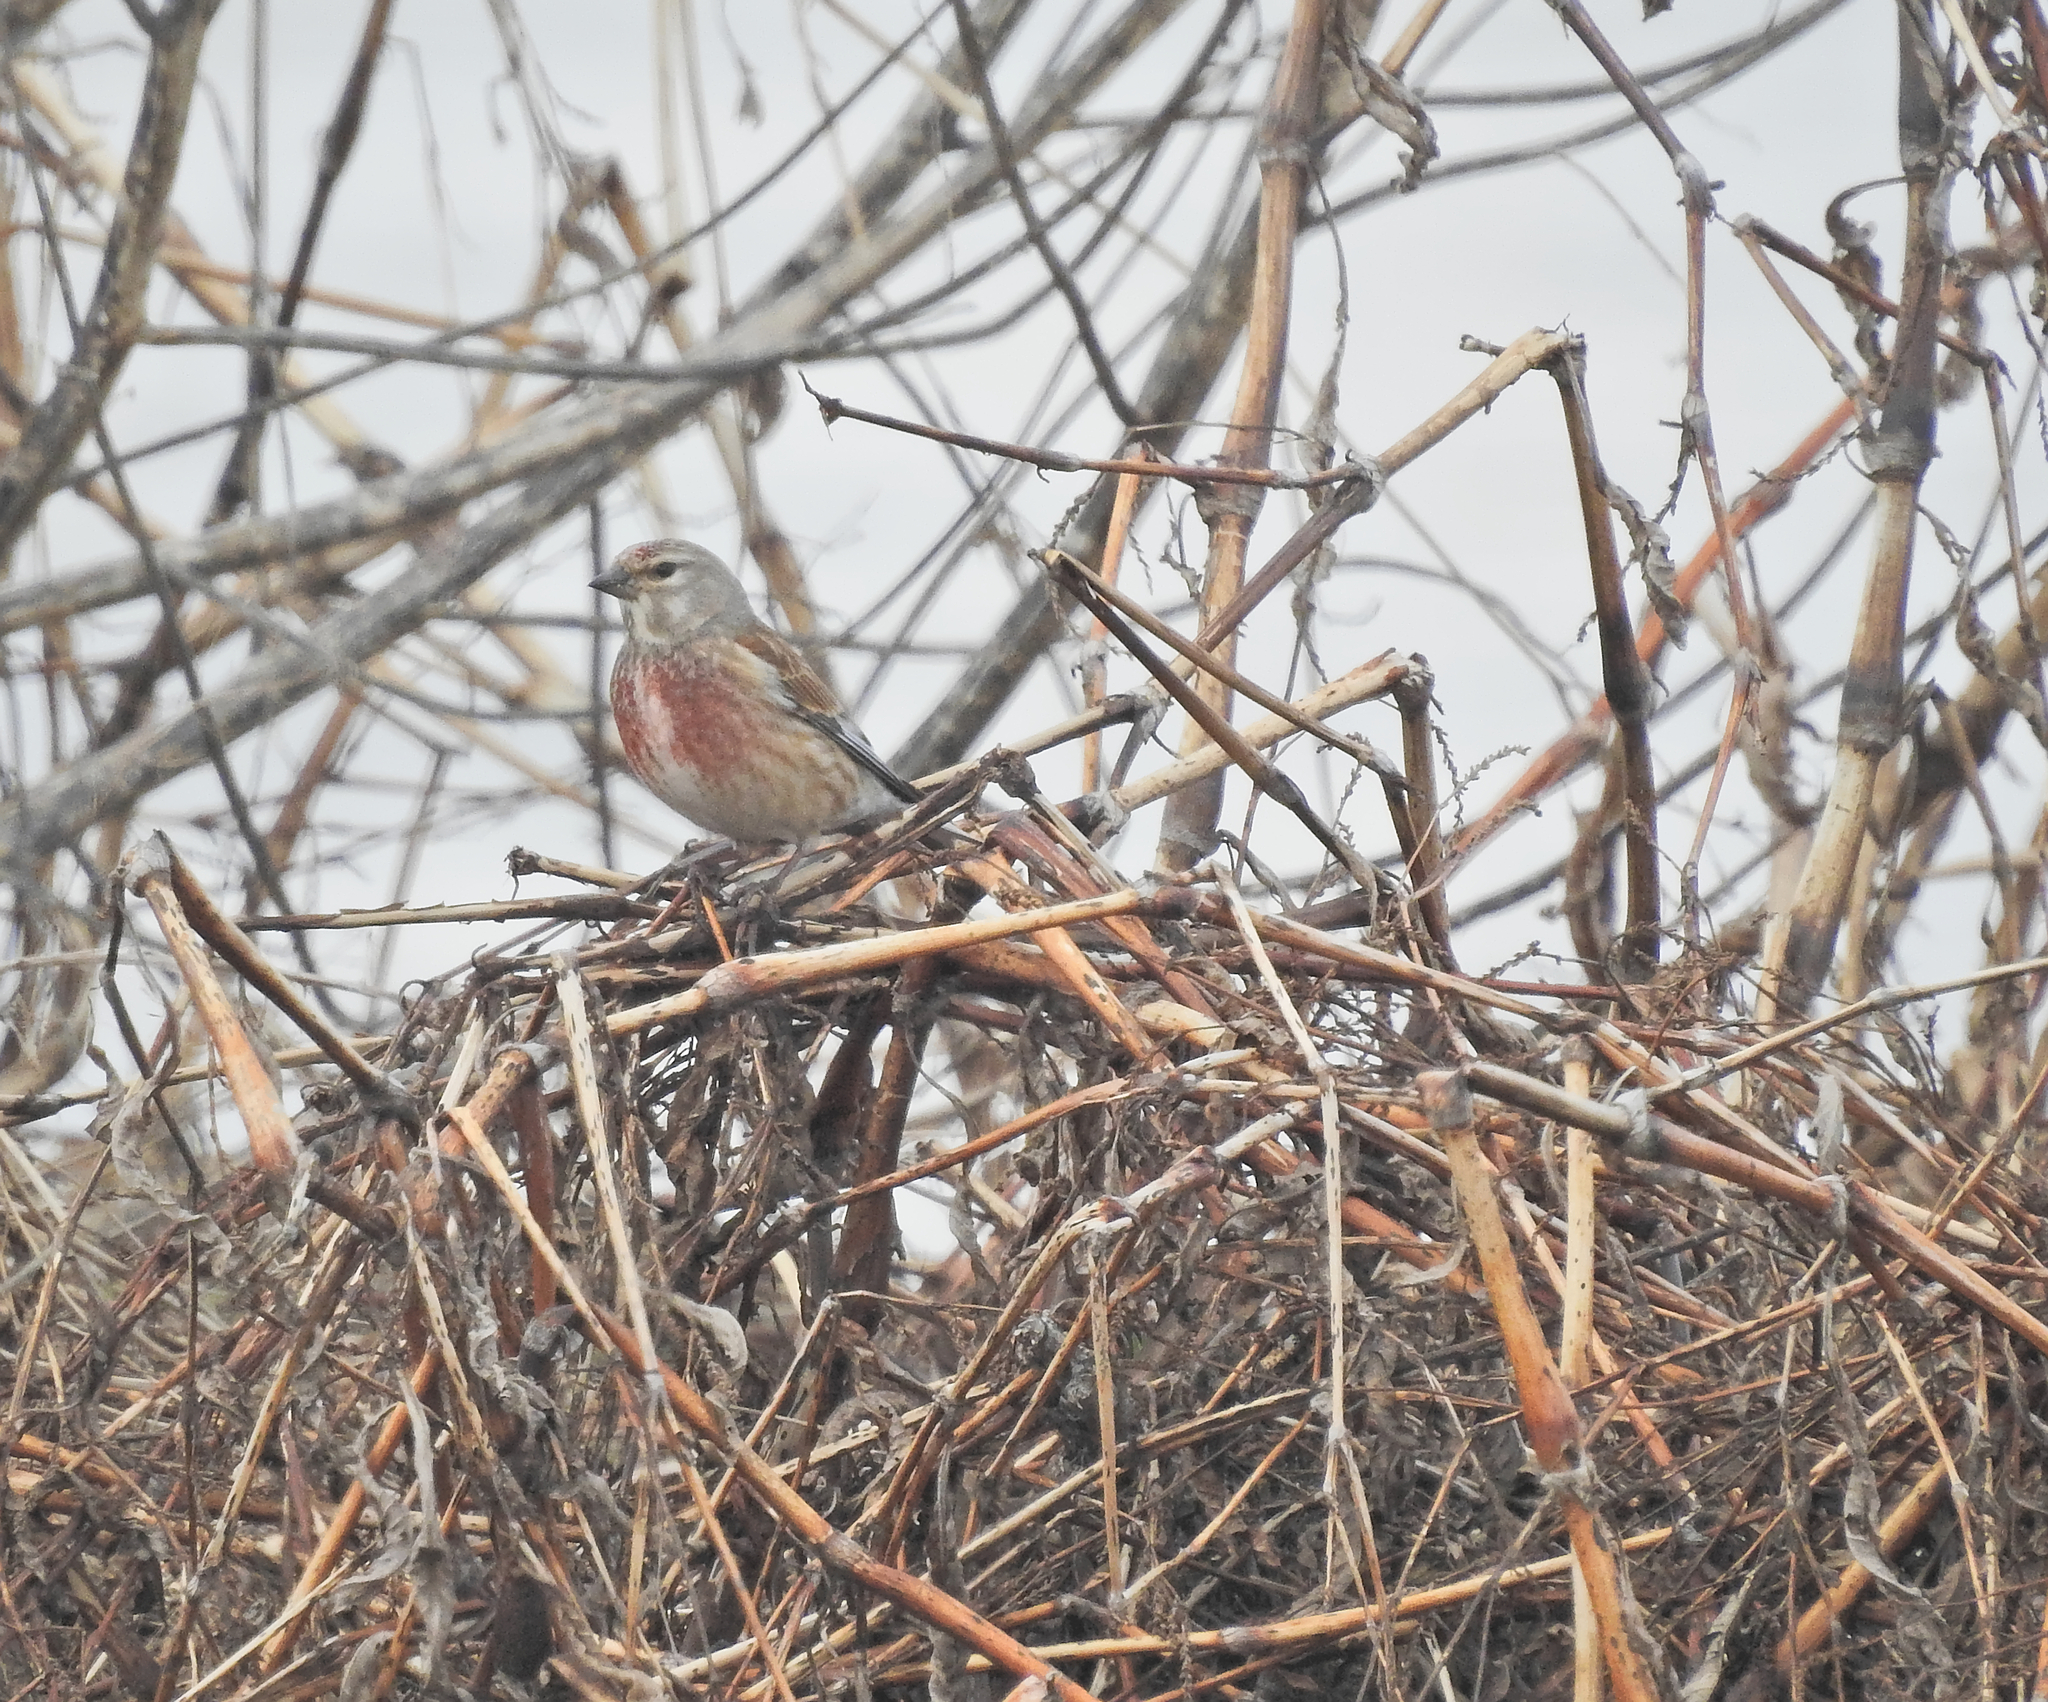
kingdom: Animalia
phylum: Chordata
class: Aves
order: Passeriformes
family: Fringillidae
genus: Linaria
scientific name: Linaria cannabina
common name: Common linnet
